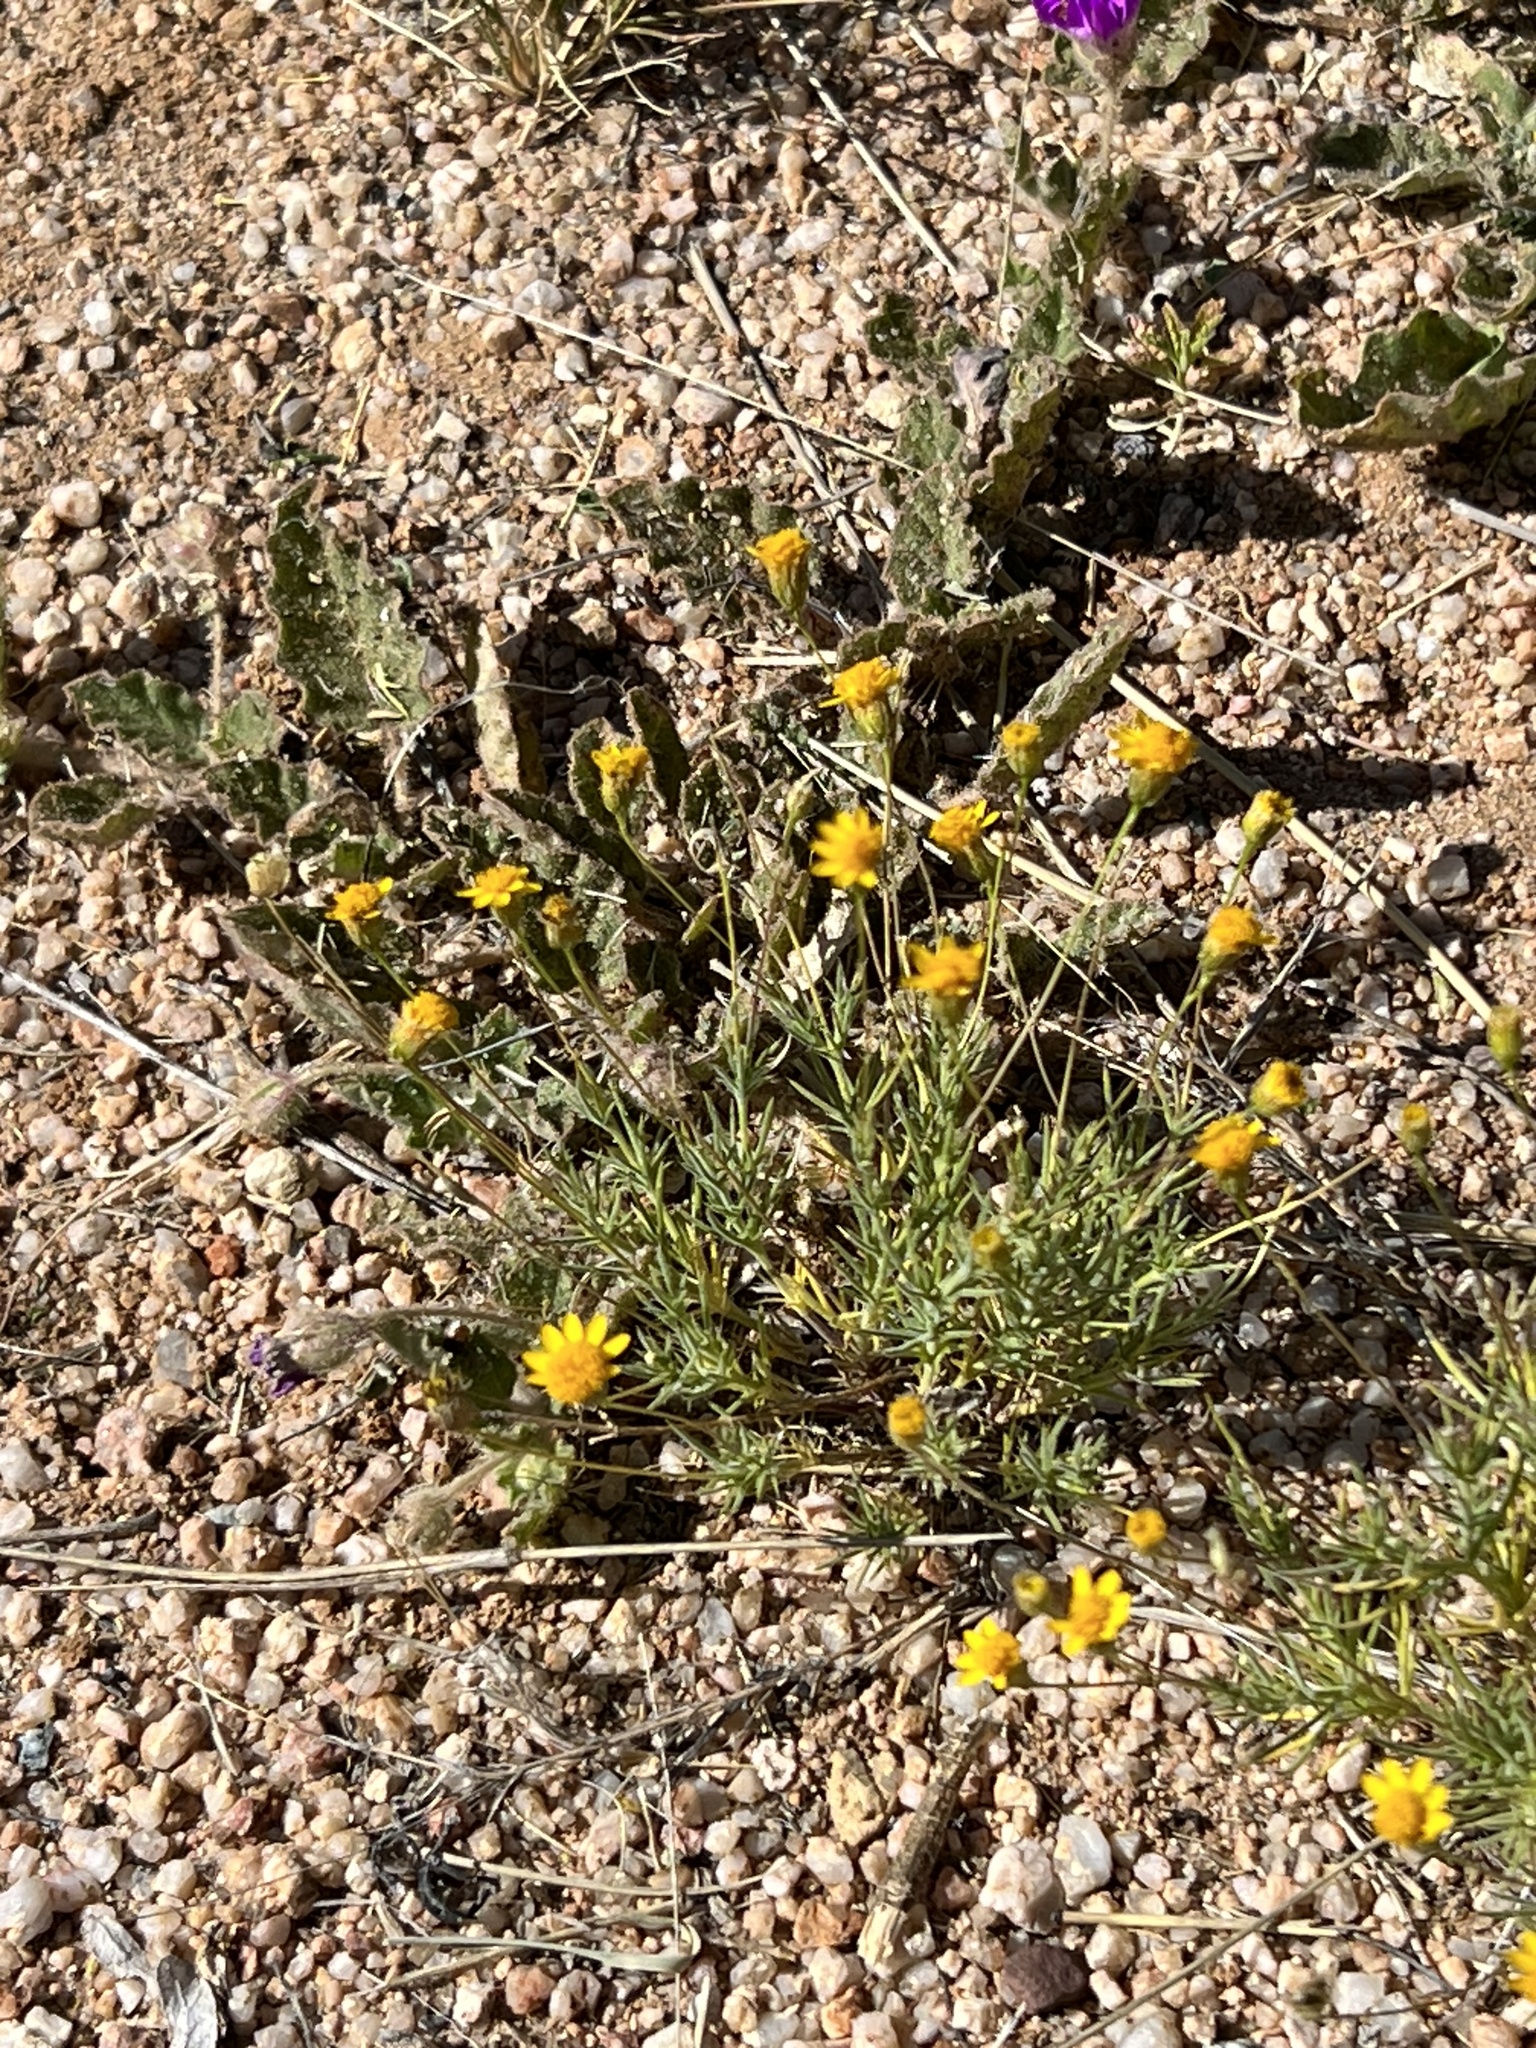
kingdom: Plantae
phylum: Tracheophyta
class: Magnoliopsida
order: Asterales
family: Asteraceae
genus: Thymophylla
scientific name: Thymophylla pentachaeta
